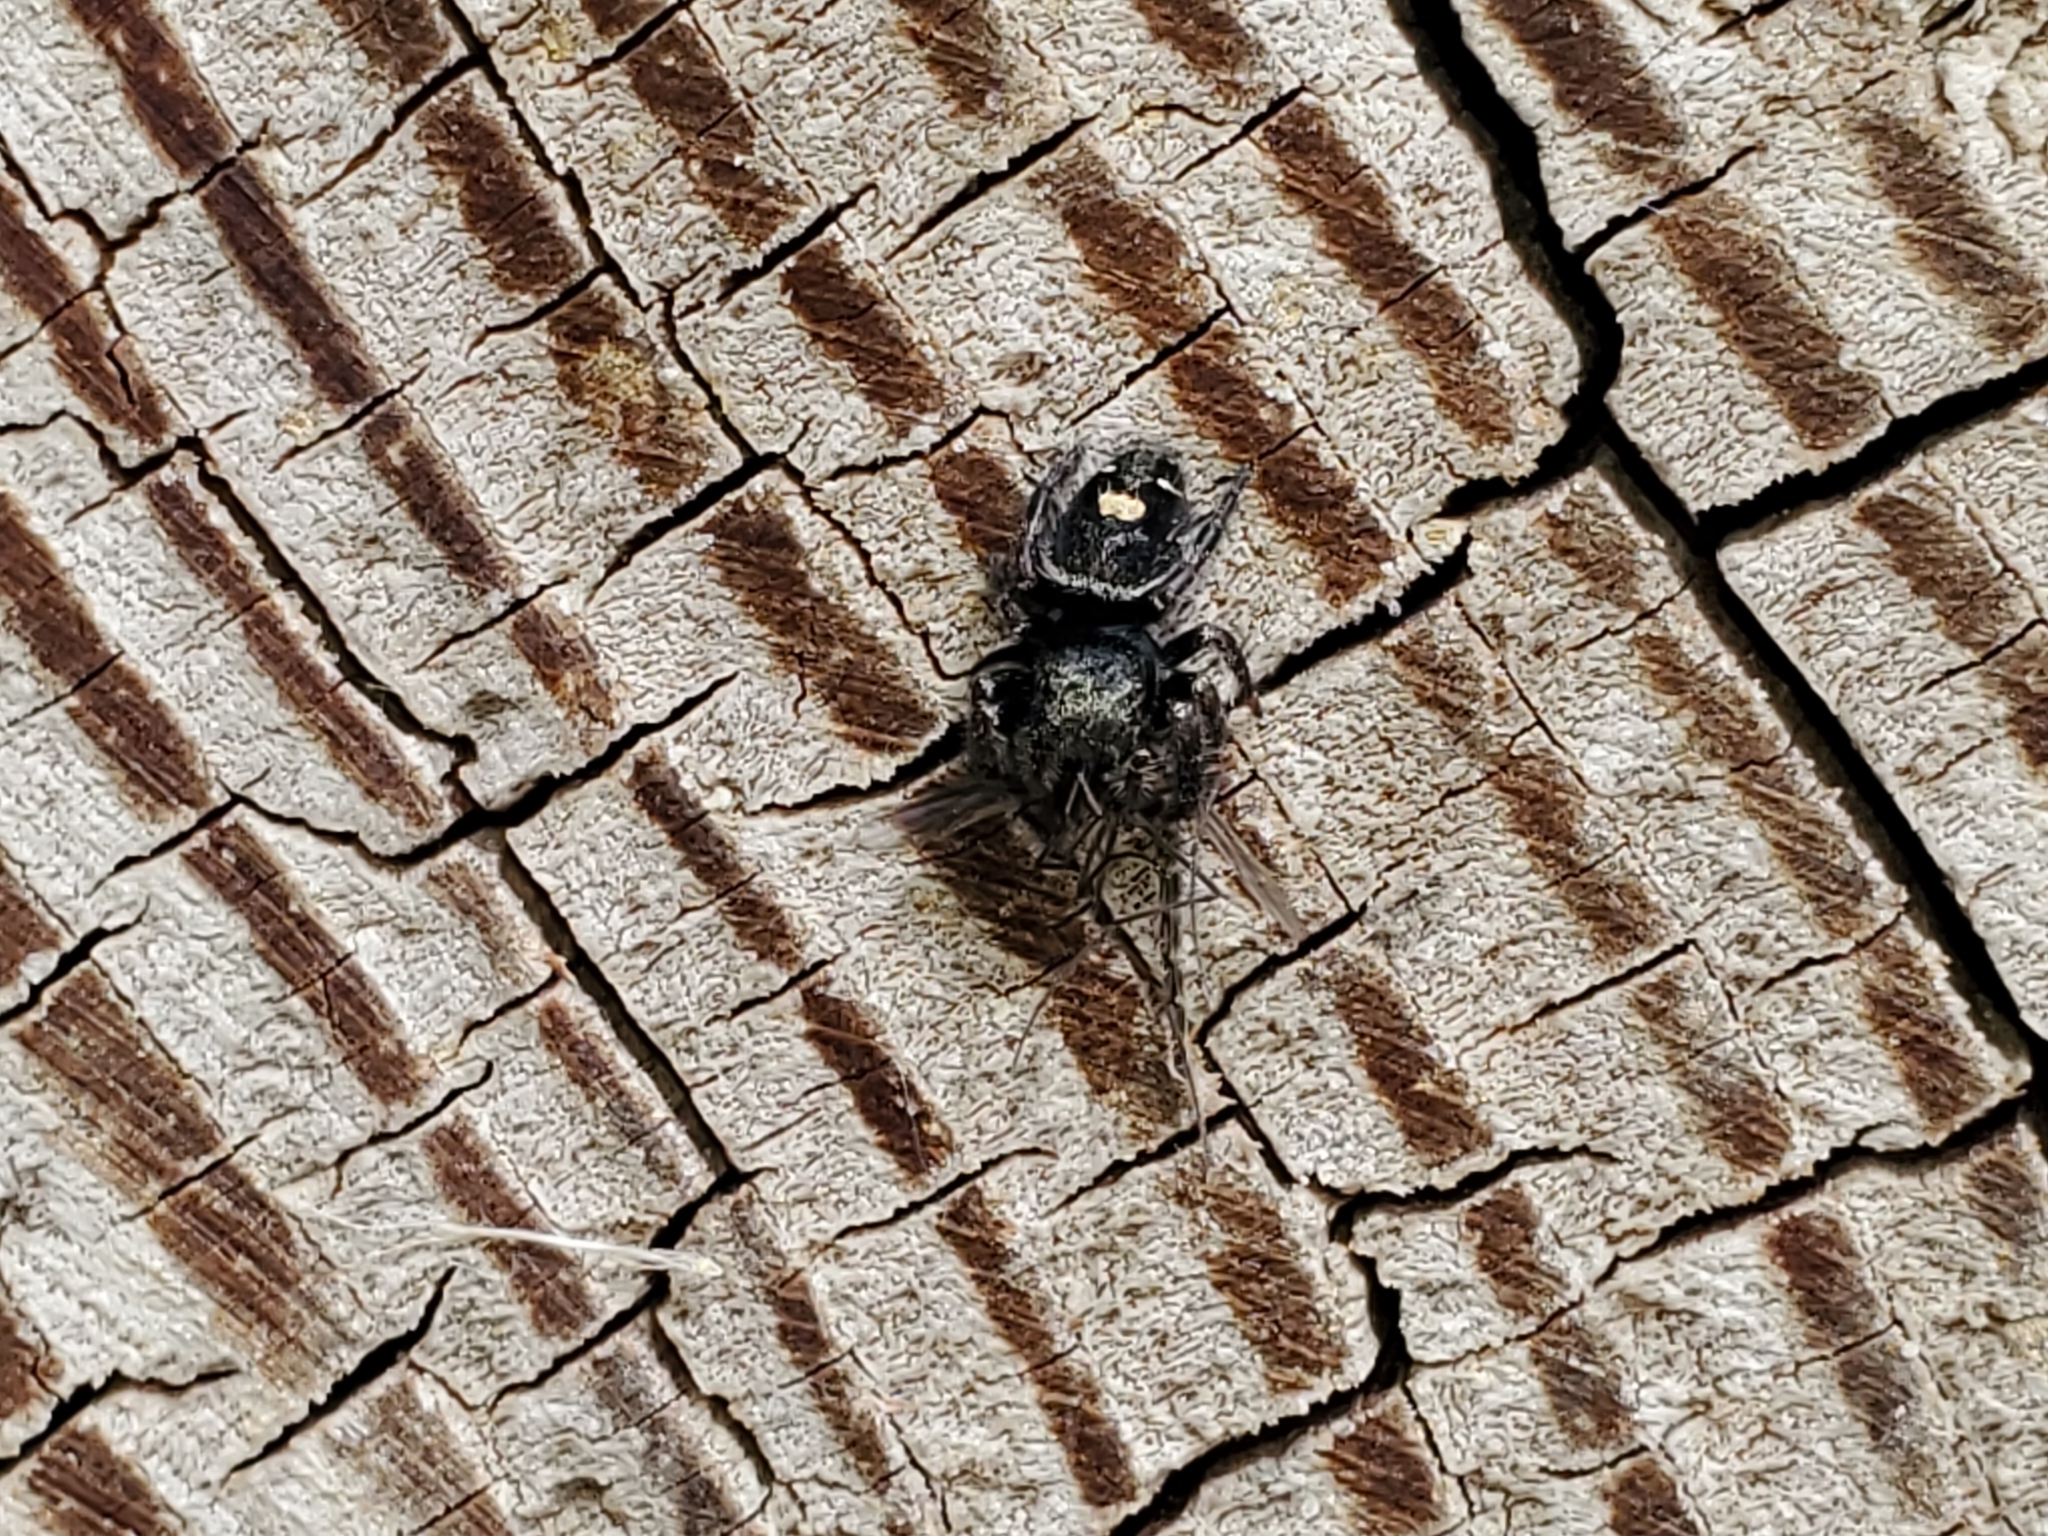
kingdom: Animalia
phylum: Arthropoda
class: Arachnida
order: Araneae
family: Salticidae
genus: Phidippus
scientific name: Phidippus audax
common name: Bold jumper
